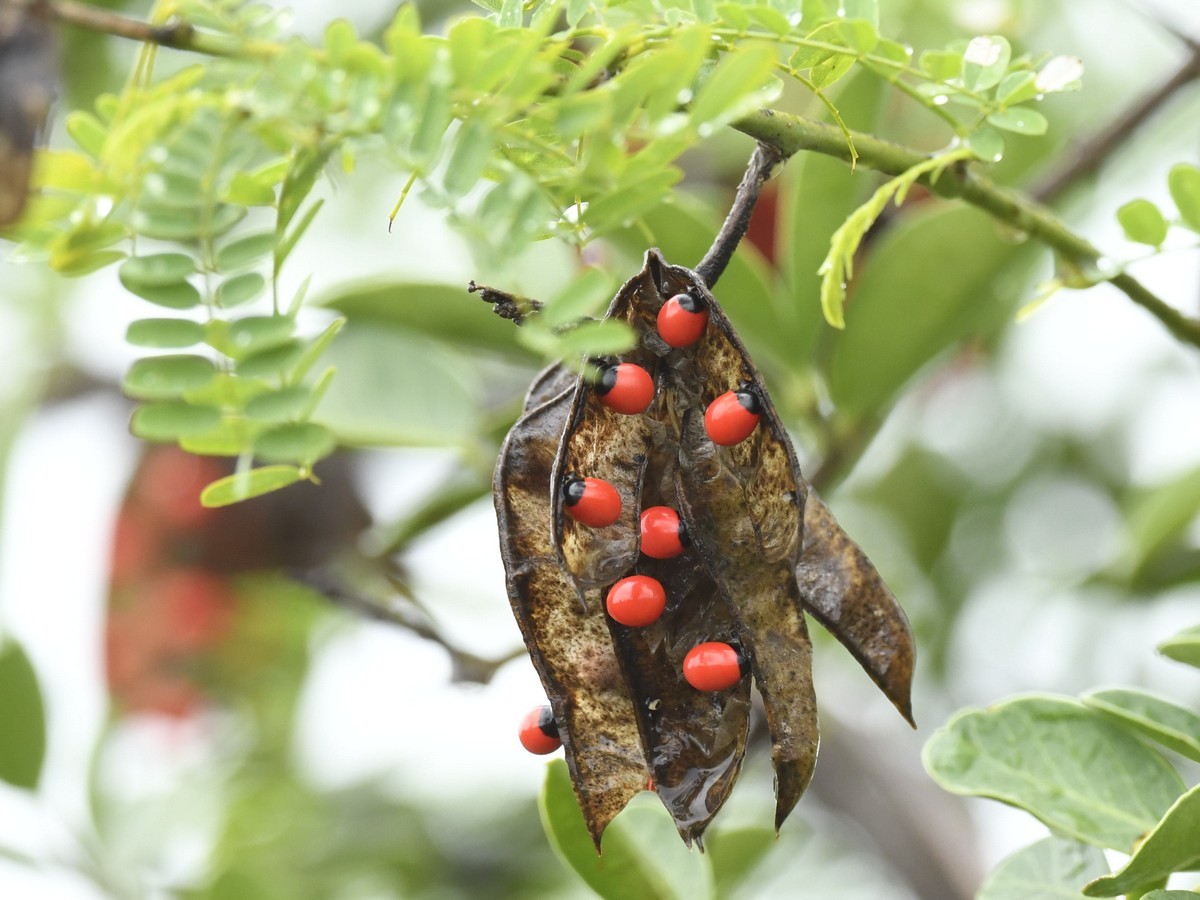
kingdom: Plantae
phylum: Tracheophyta
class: Magnoliopsida
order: Fabales
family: Fabaceae
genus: Abrus
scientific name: Abrus precatorius
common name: Rosarypea
